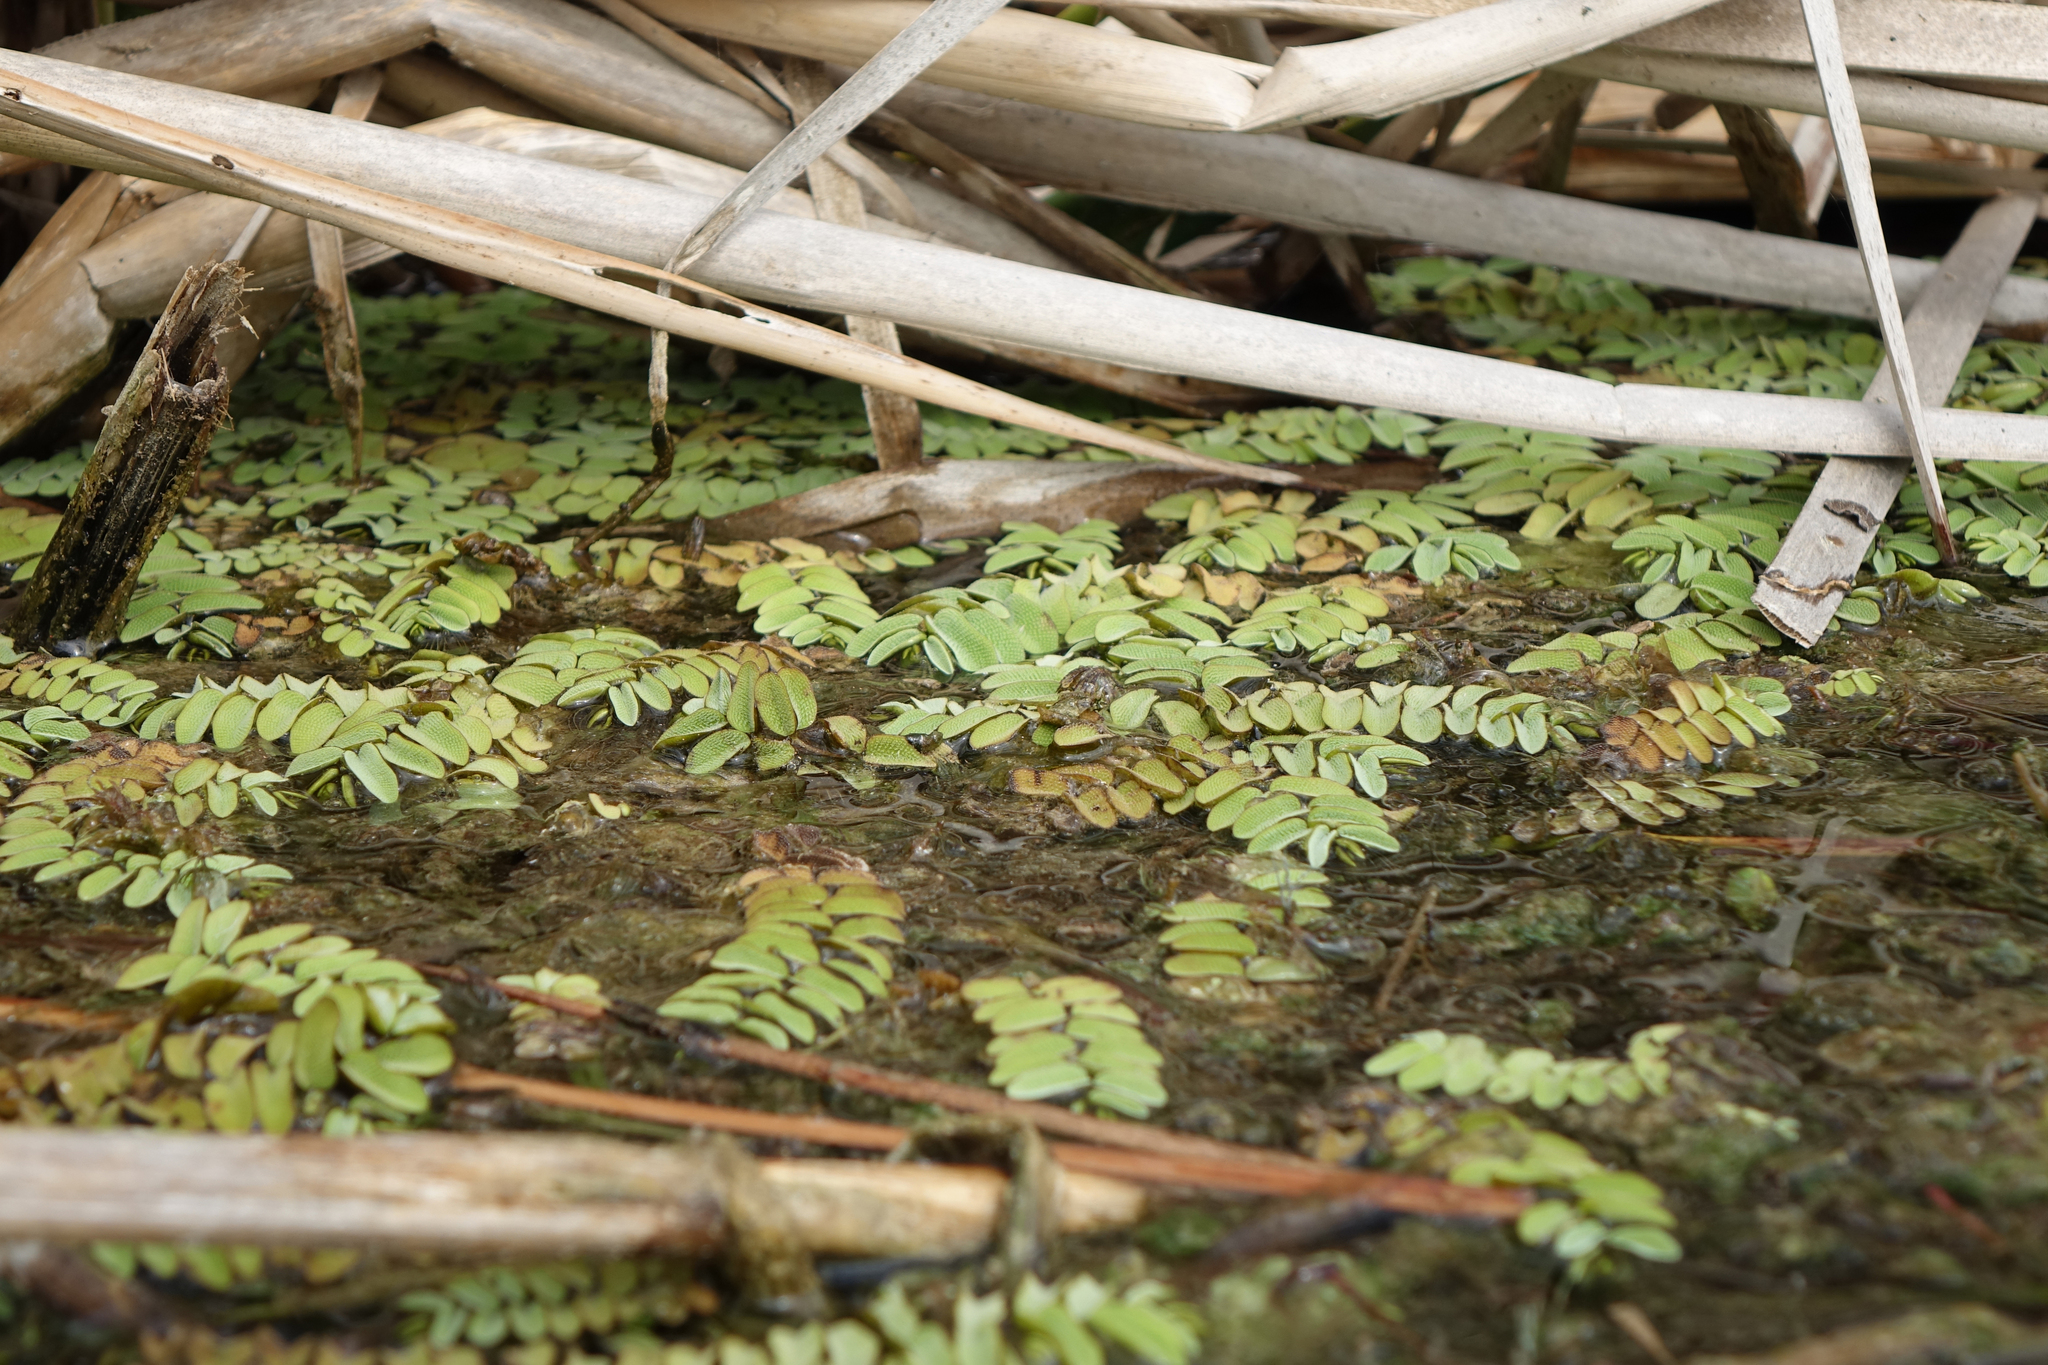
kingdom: Plantae
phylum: Tracheophyta
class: Polypodiopsida
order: Salviniales
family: Salviniaceae
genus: Salvinia
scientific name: Salvinia natans
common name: Floating fern
